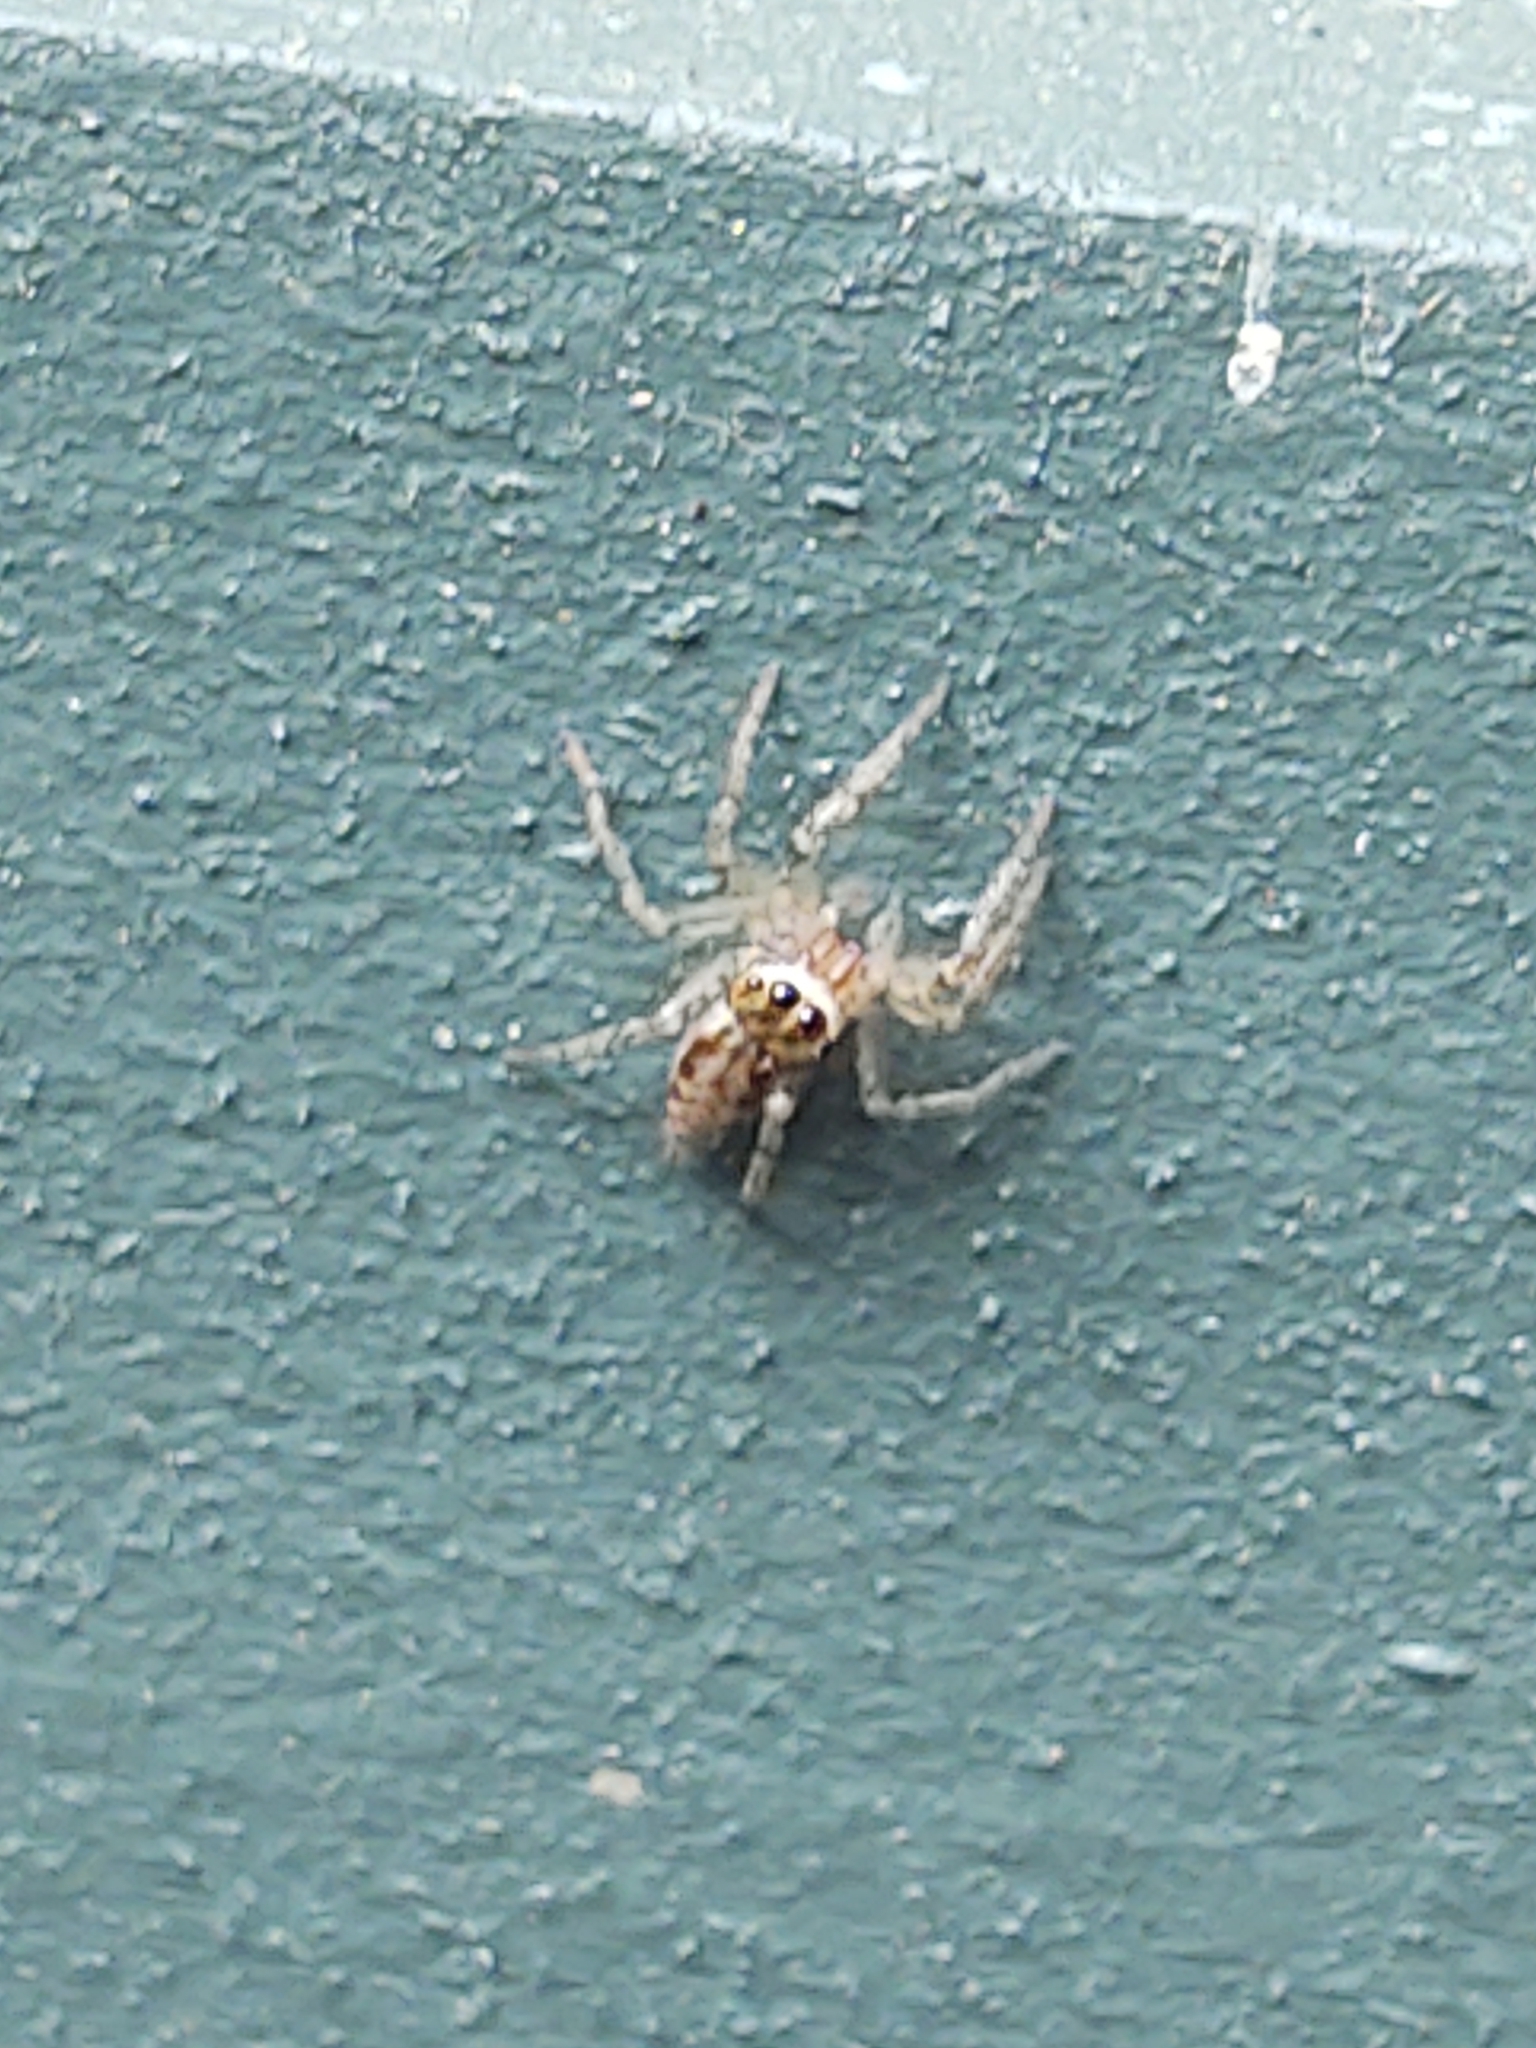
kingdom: Animalia
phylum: Arthropoda
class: Arachnida
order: Araneae
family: Salticidae
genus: Maevia
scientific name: Maevia inclemens
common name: Dimorphic jumper
